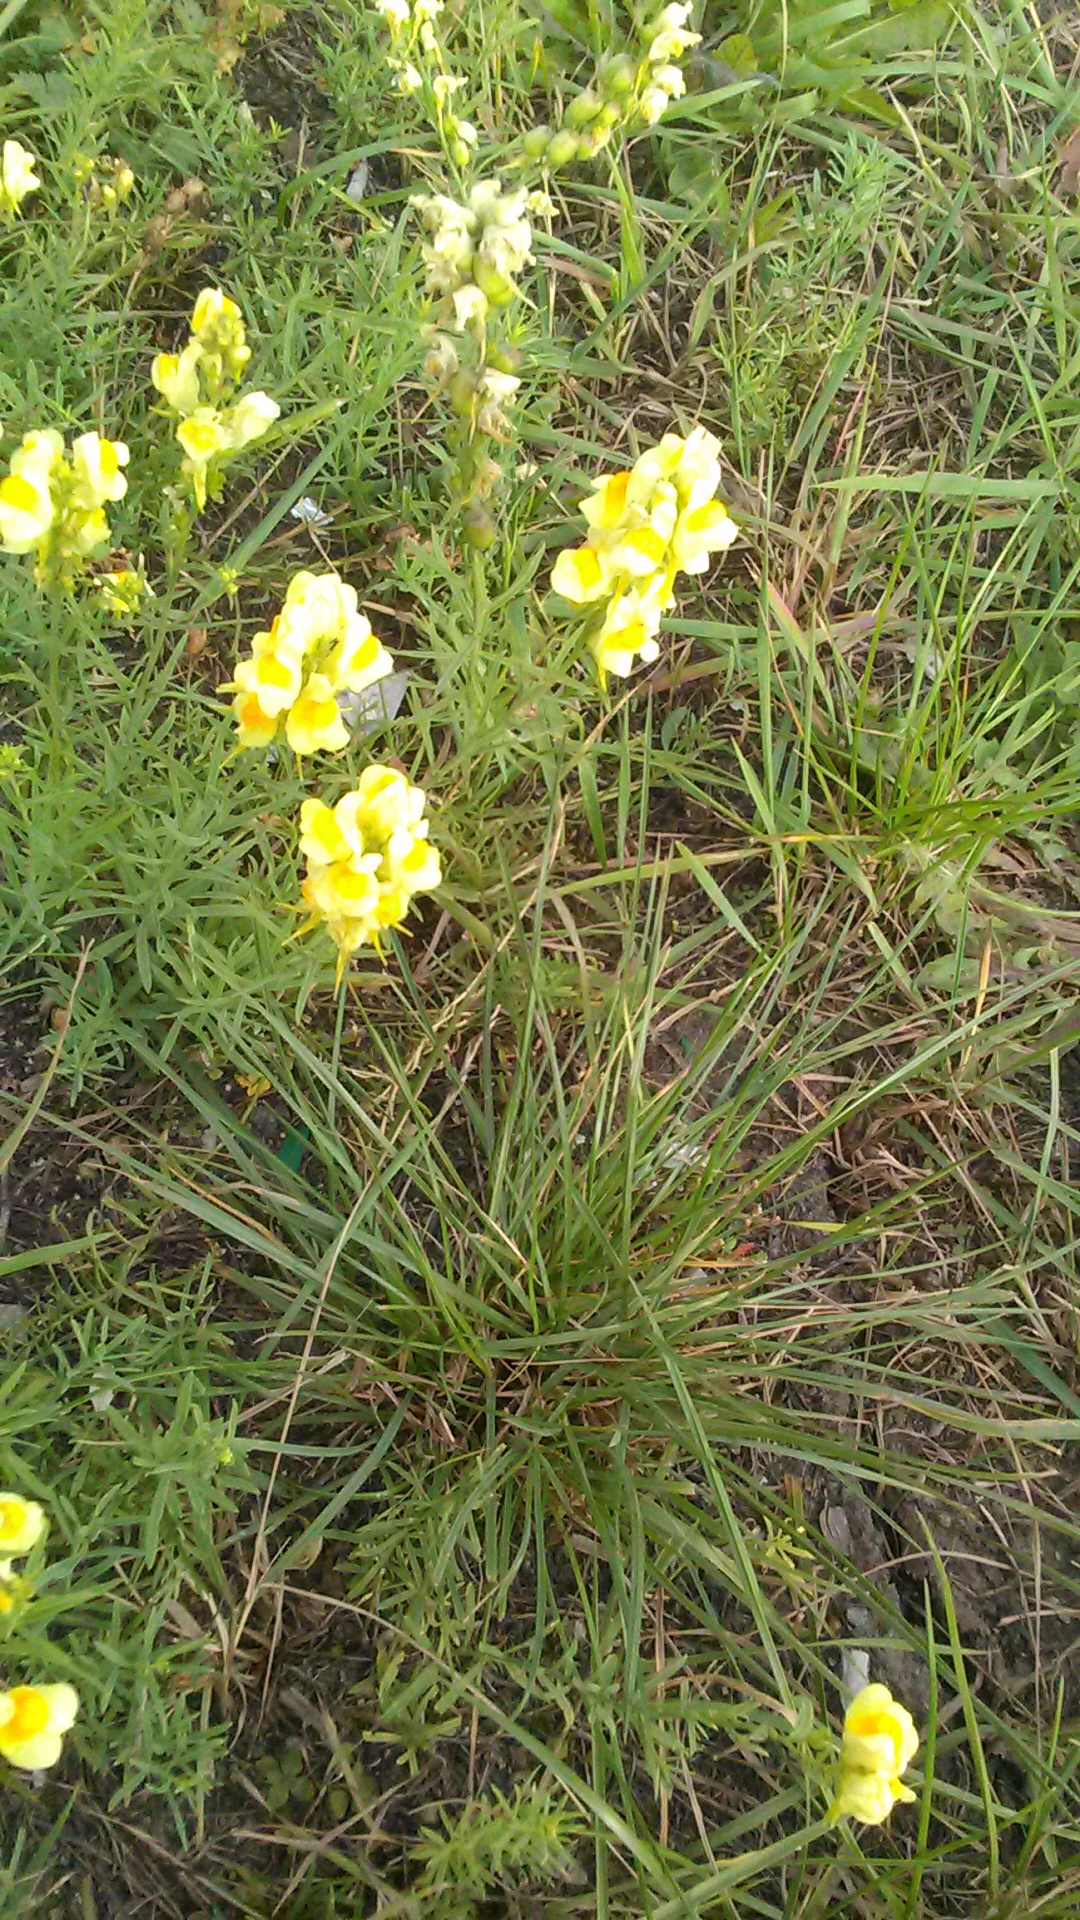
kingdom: Plantae
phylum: Tracheophyta
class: Magnoliopsida
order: Lamiales
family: Plantaginaceae
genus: Linaria
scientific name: Linaria vulgaris
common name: Butter and eggs
